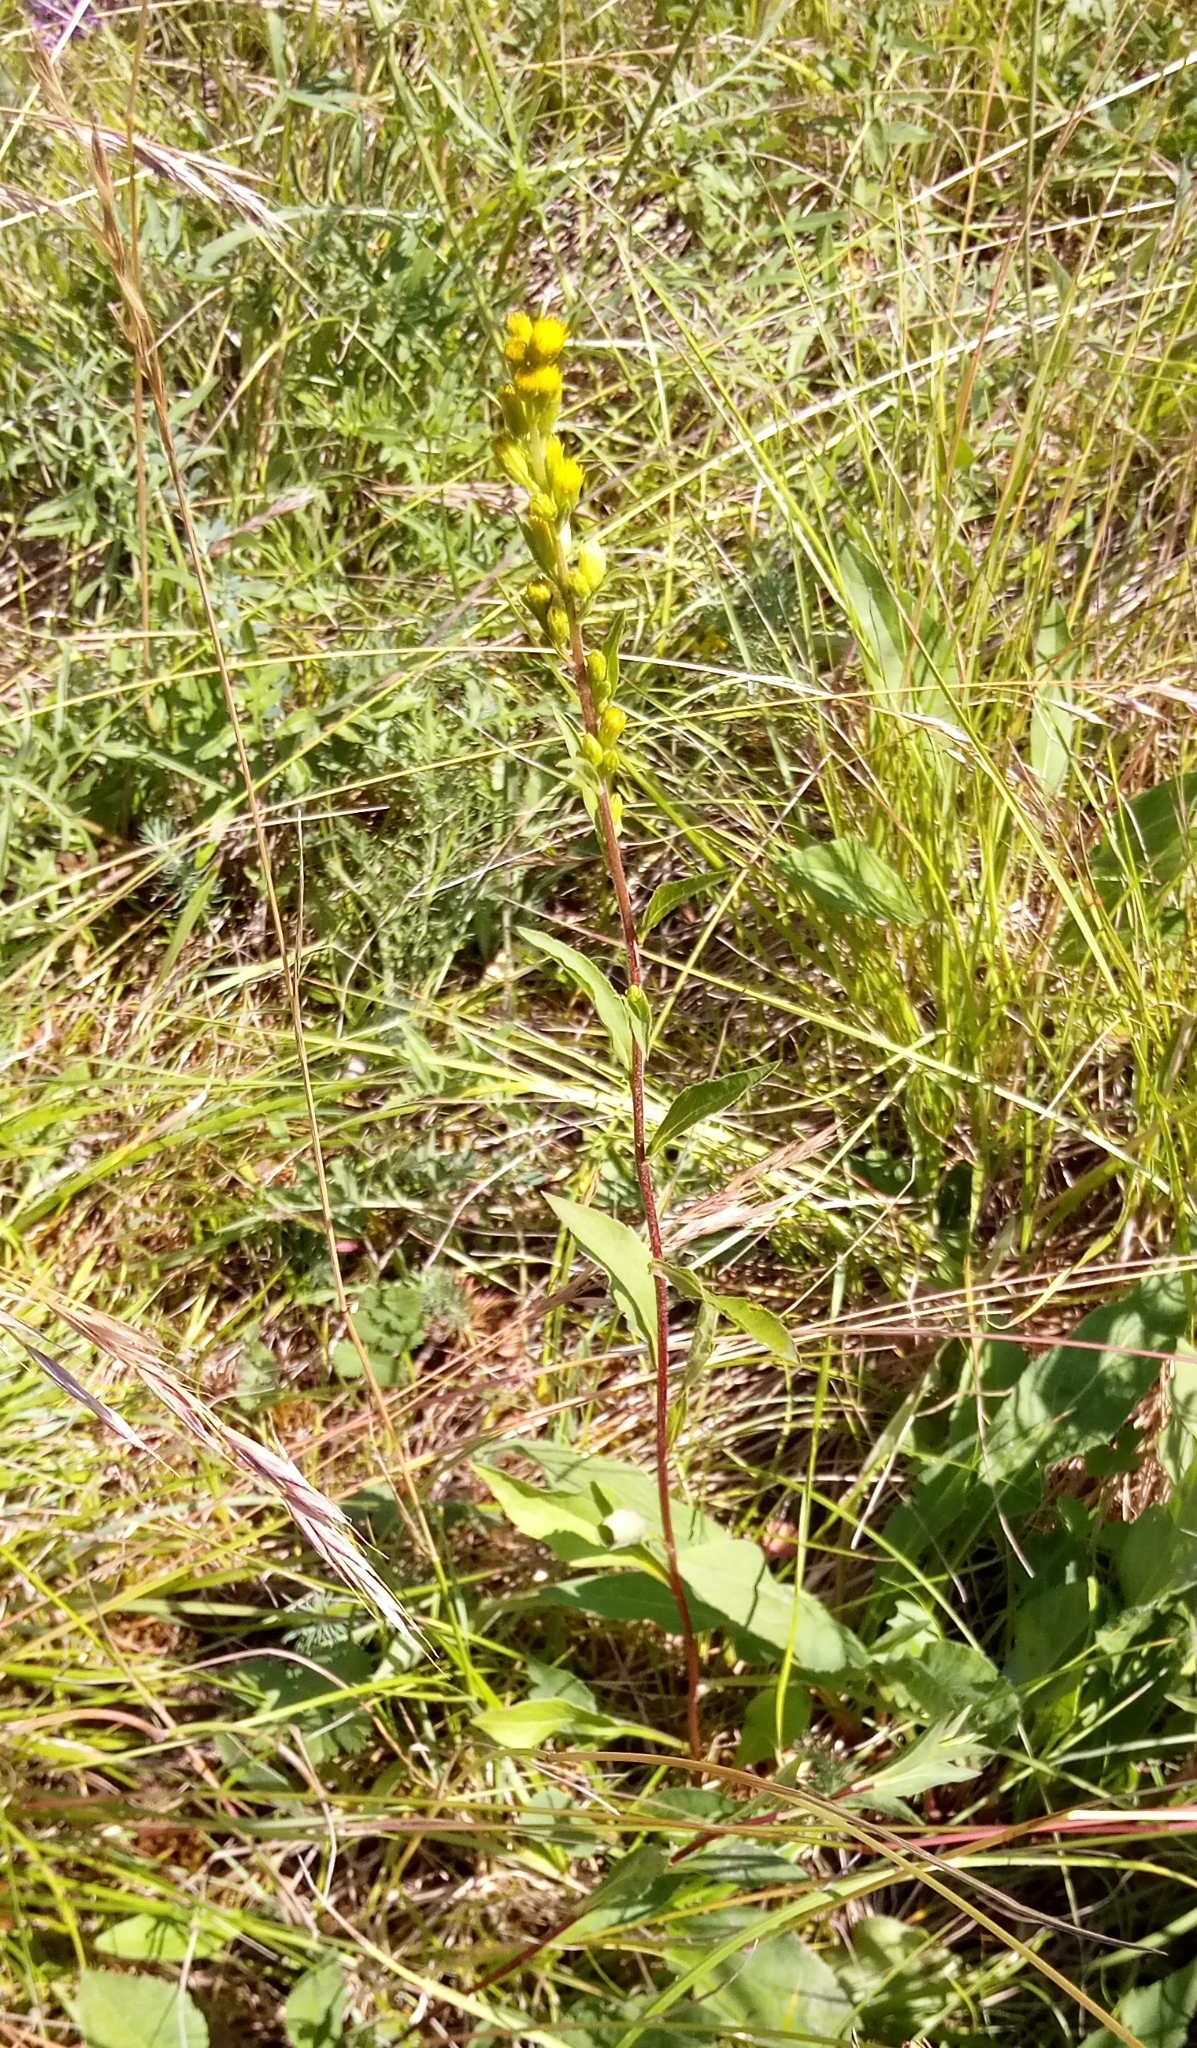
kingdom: Plantae
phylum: Tracheophyta
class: Magnoliopsida
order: Asterales
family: Asteraceae
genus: Solidago
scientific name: Solidago virgaurea
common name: Goldenrod
